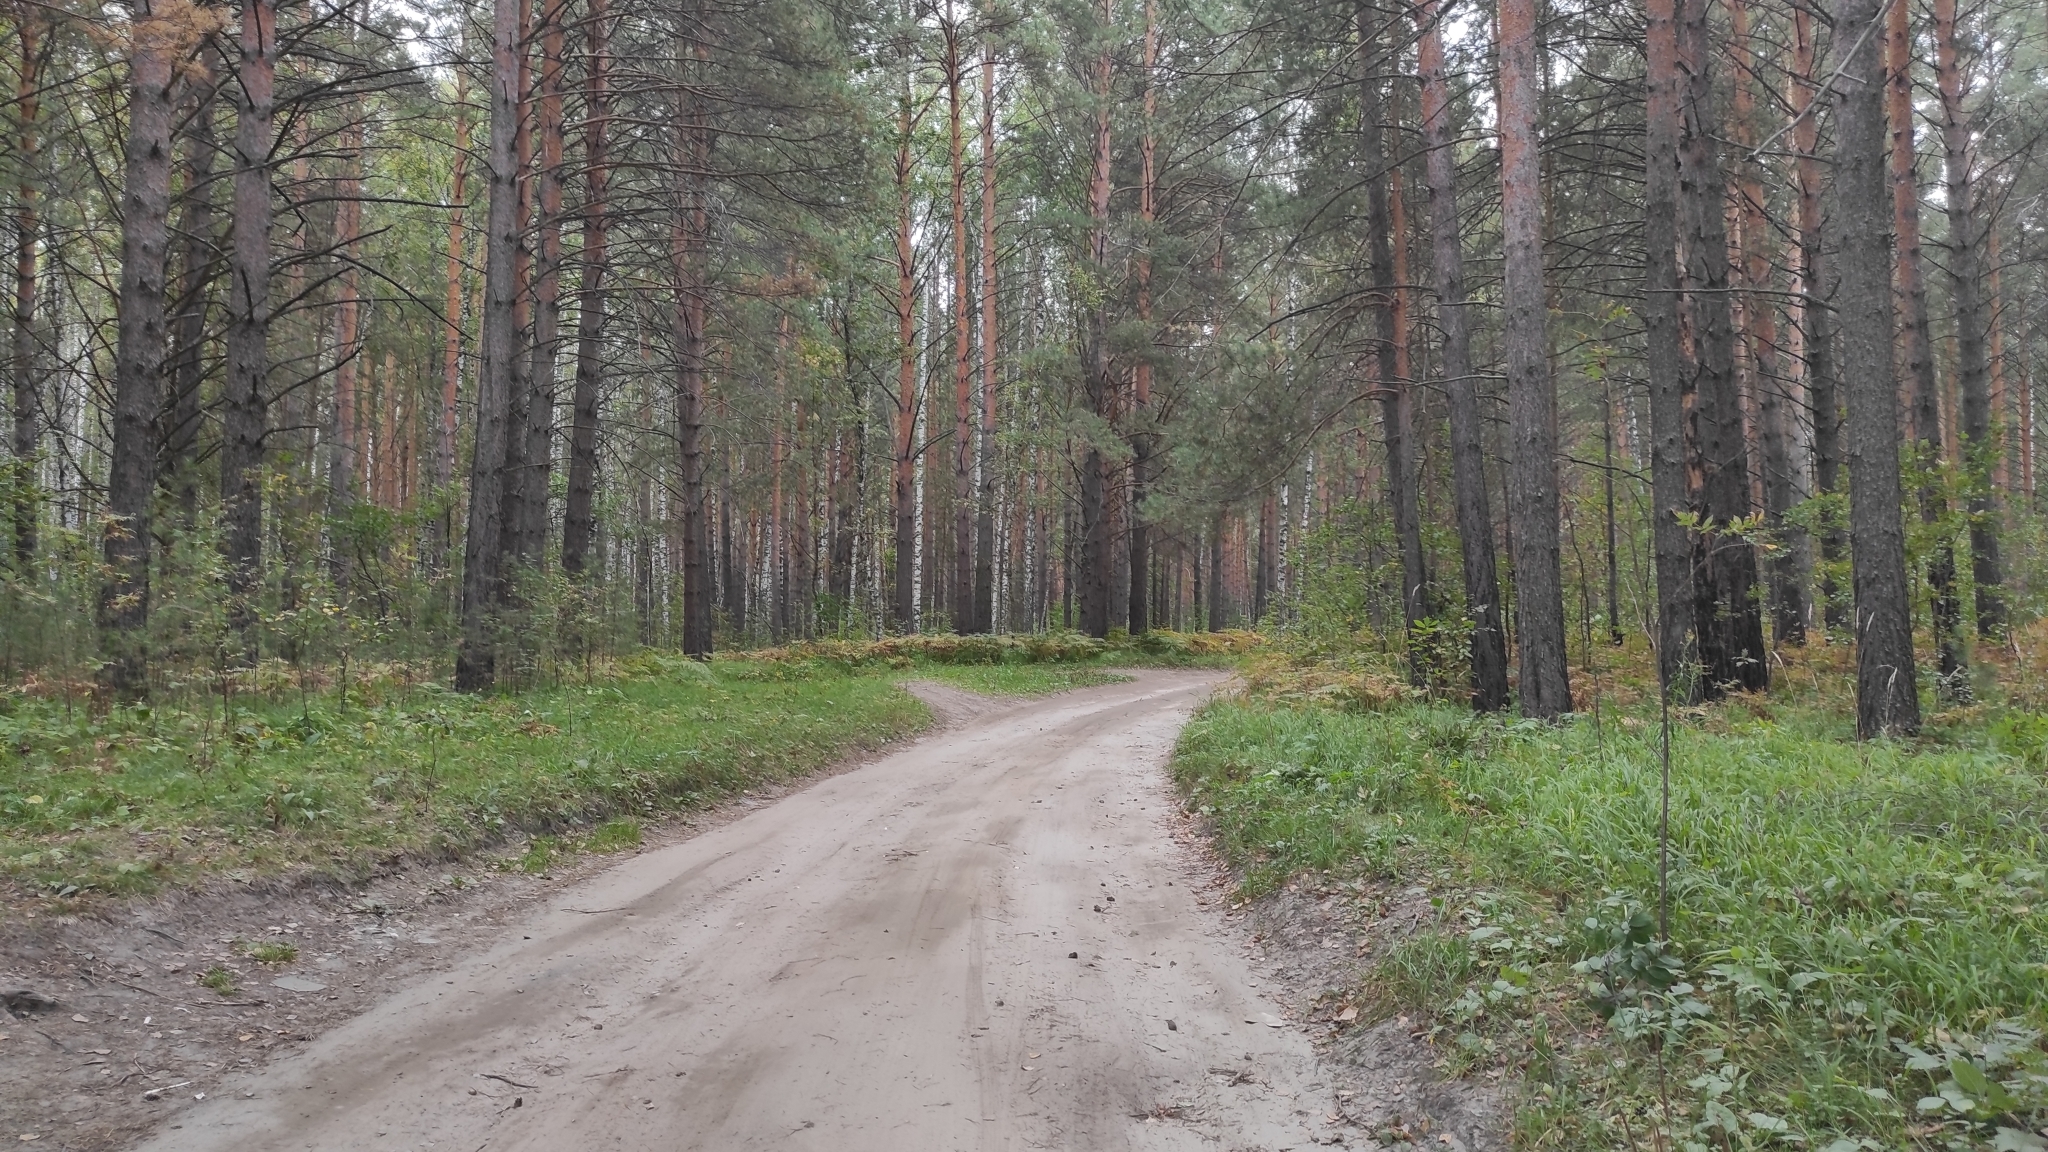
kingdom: Plantae
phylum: Tracheophyta
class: Magnoliopsida
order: Fagales
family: Betulaceae
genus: Betula
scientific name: Betula pendula
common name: Silver birch
